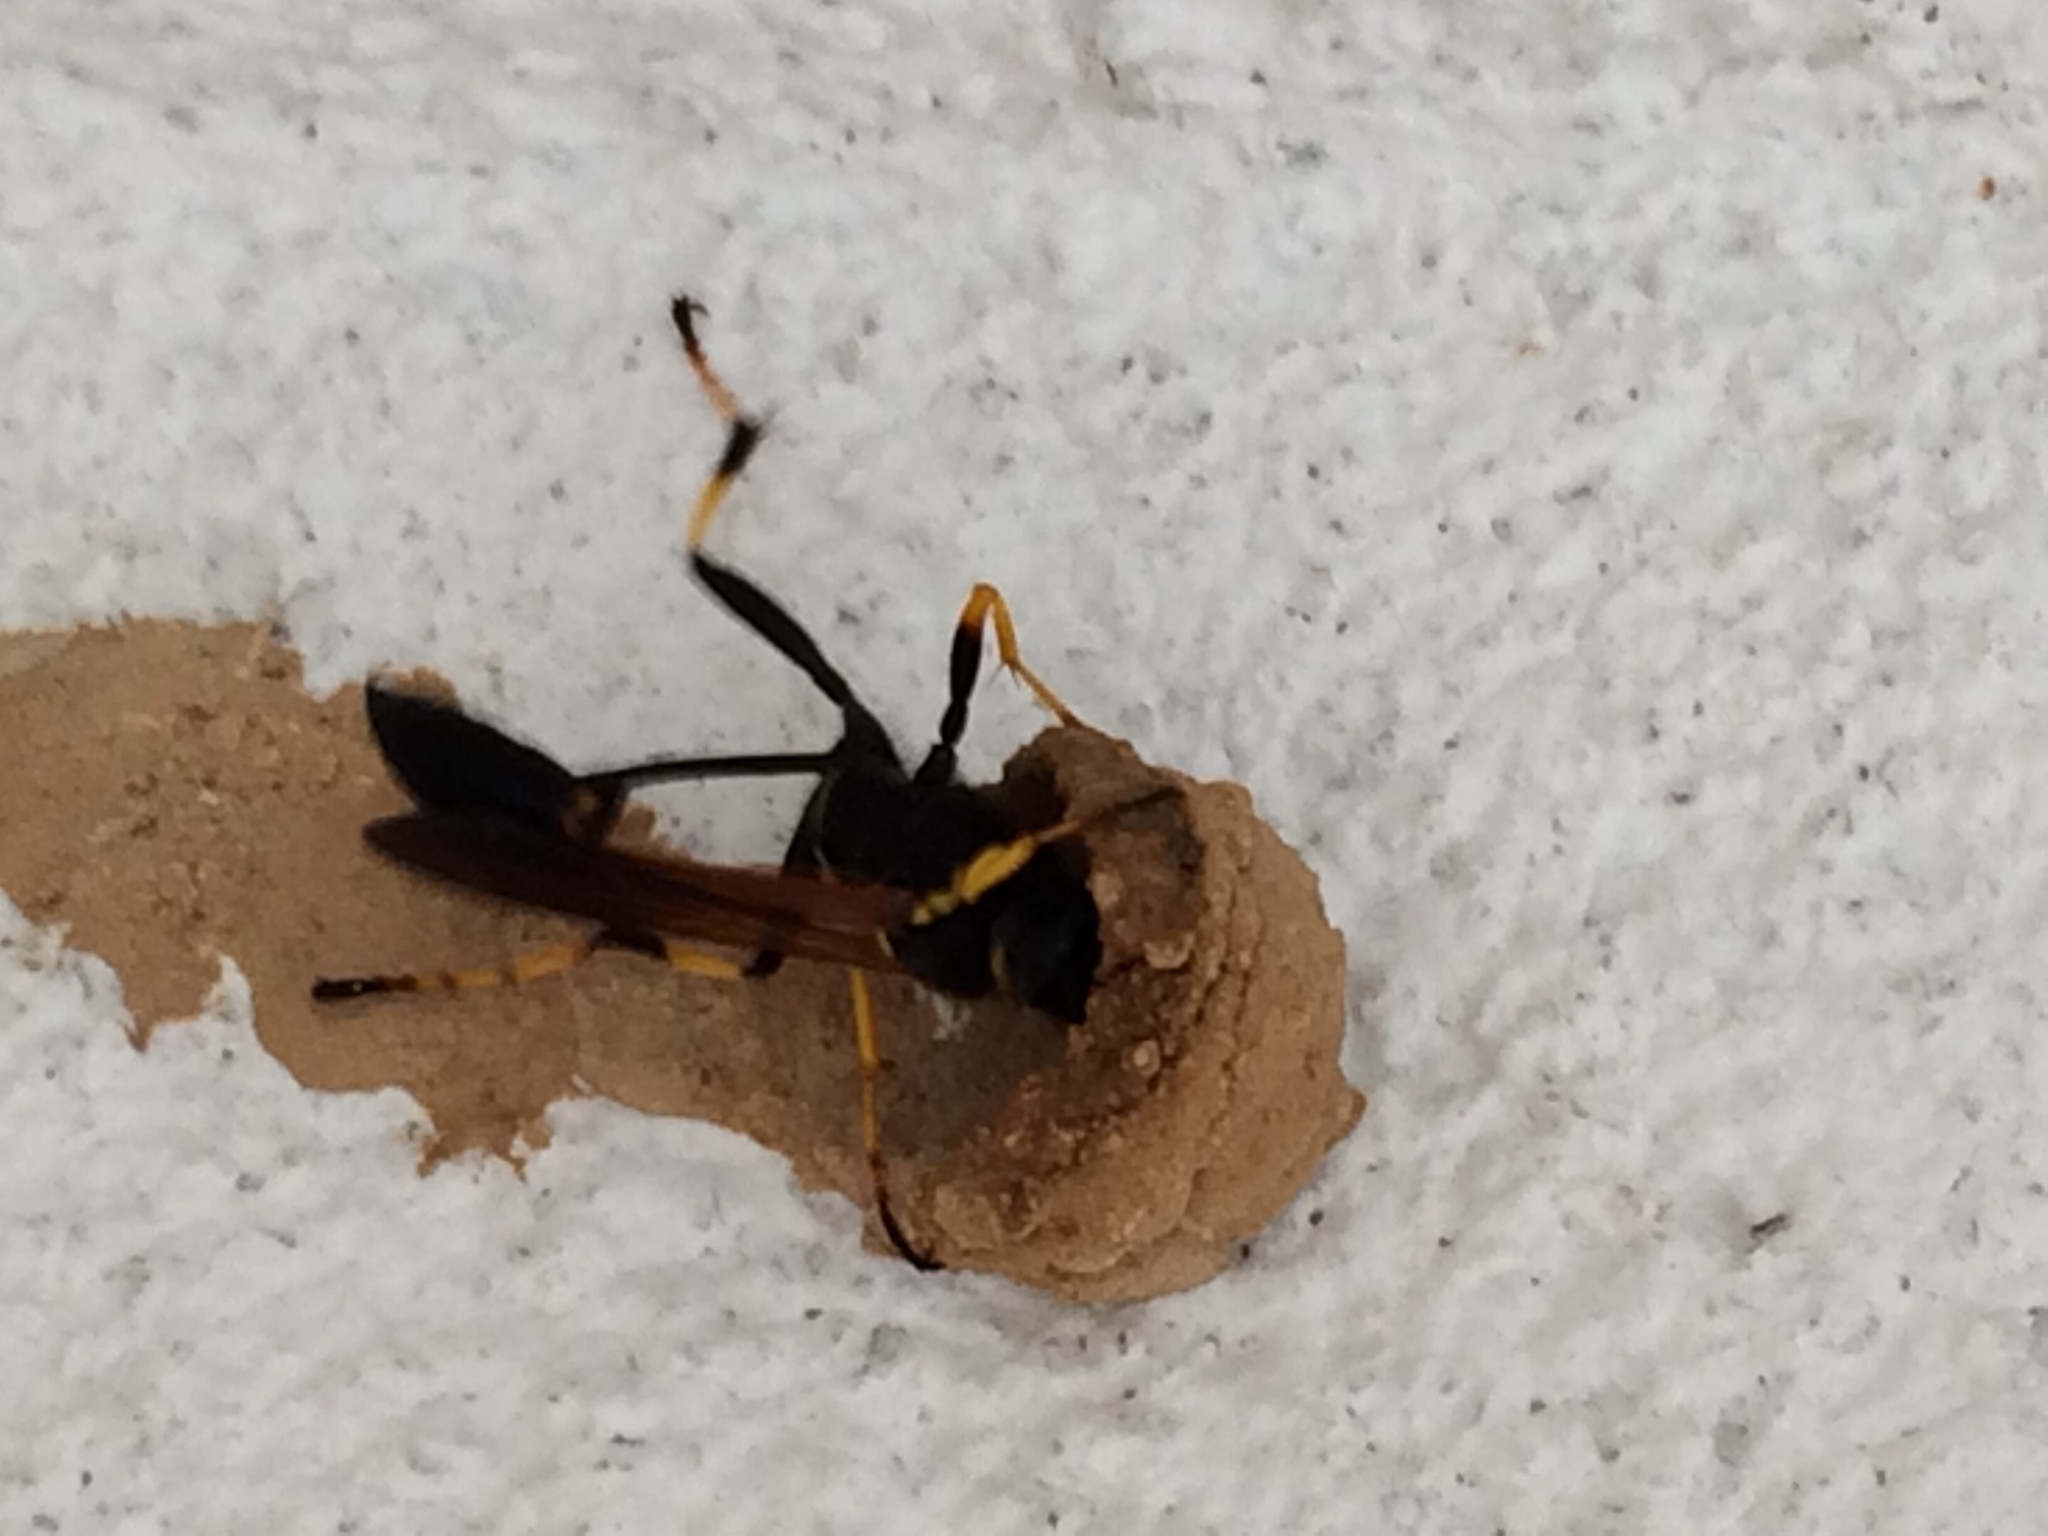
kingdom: Animalia
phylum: Arthropoda
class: Insecta
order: Hymenoptera
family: Sphecidae
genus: Sceliphron
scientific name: Sceliphron caementarium
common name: Mud dauber
